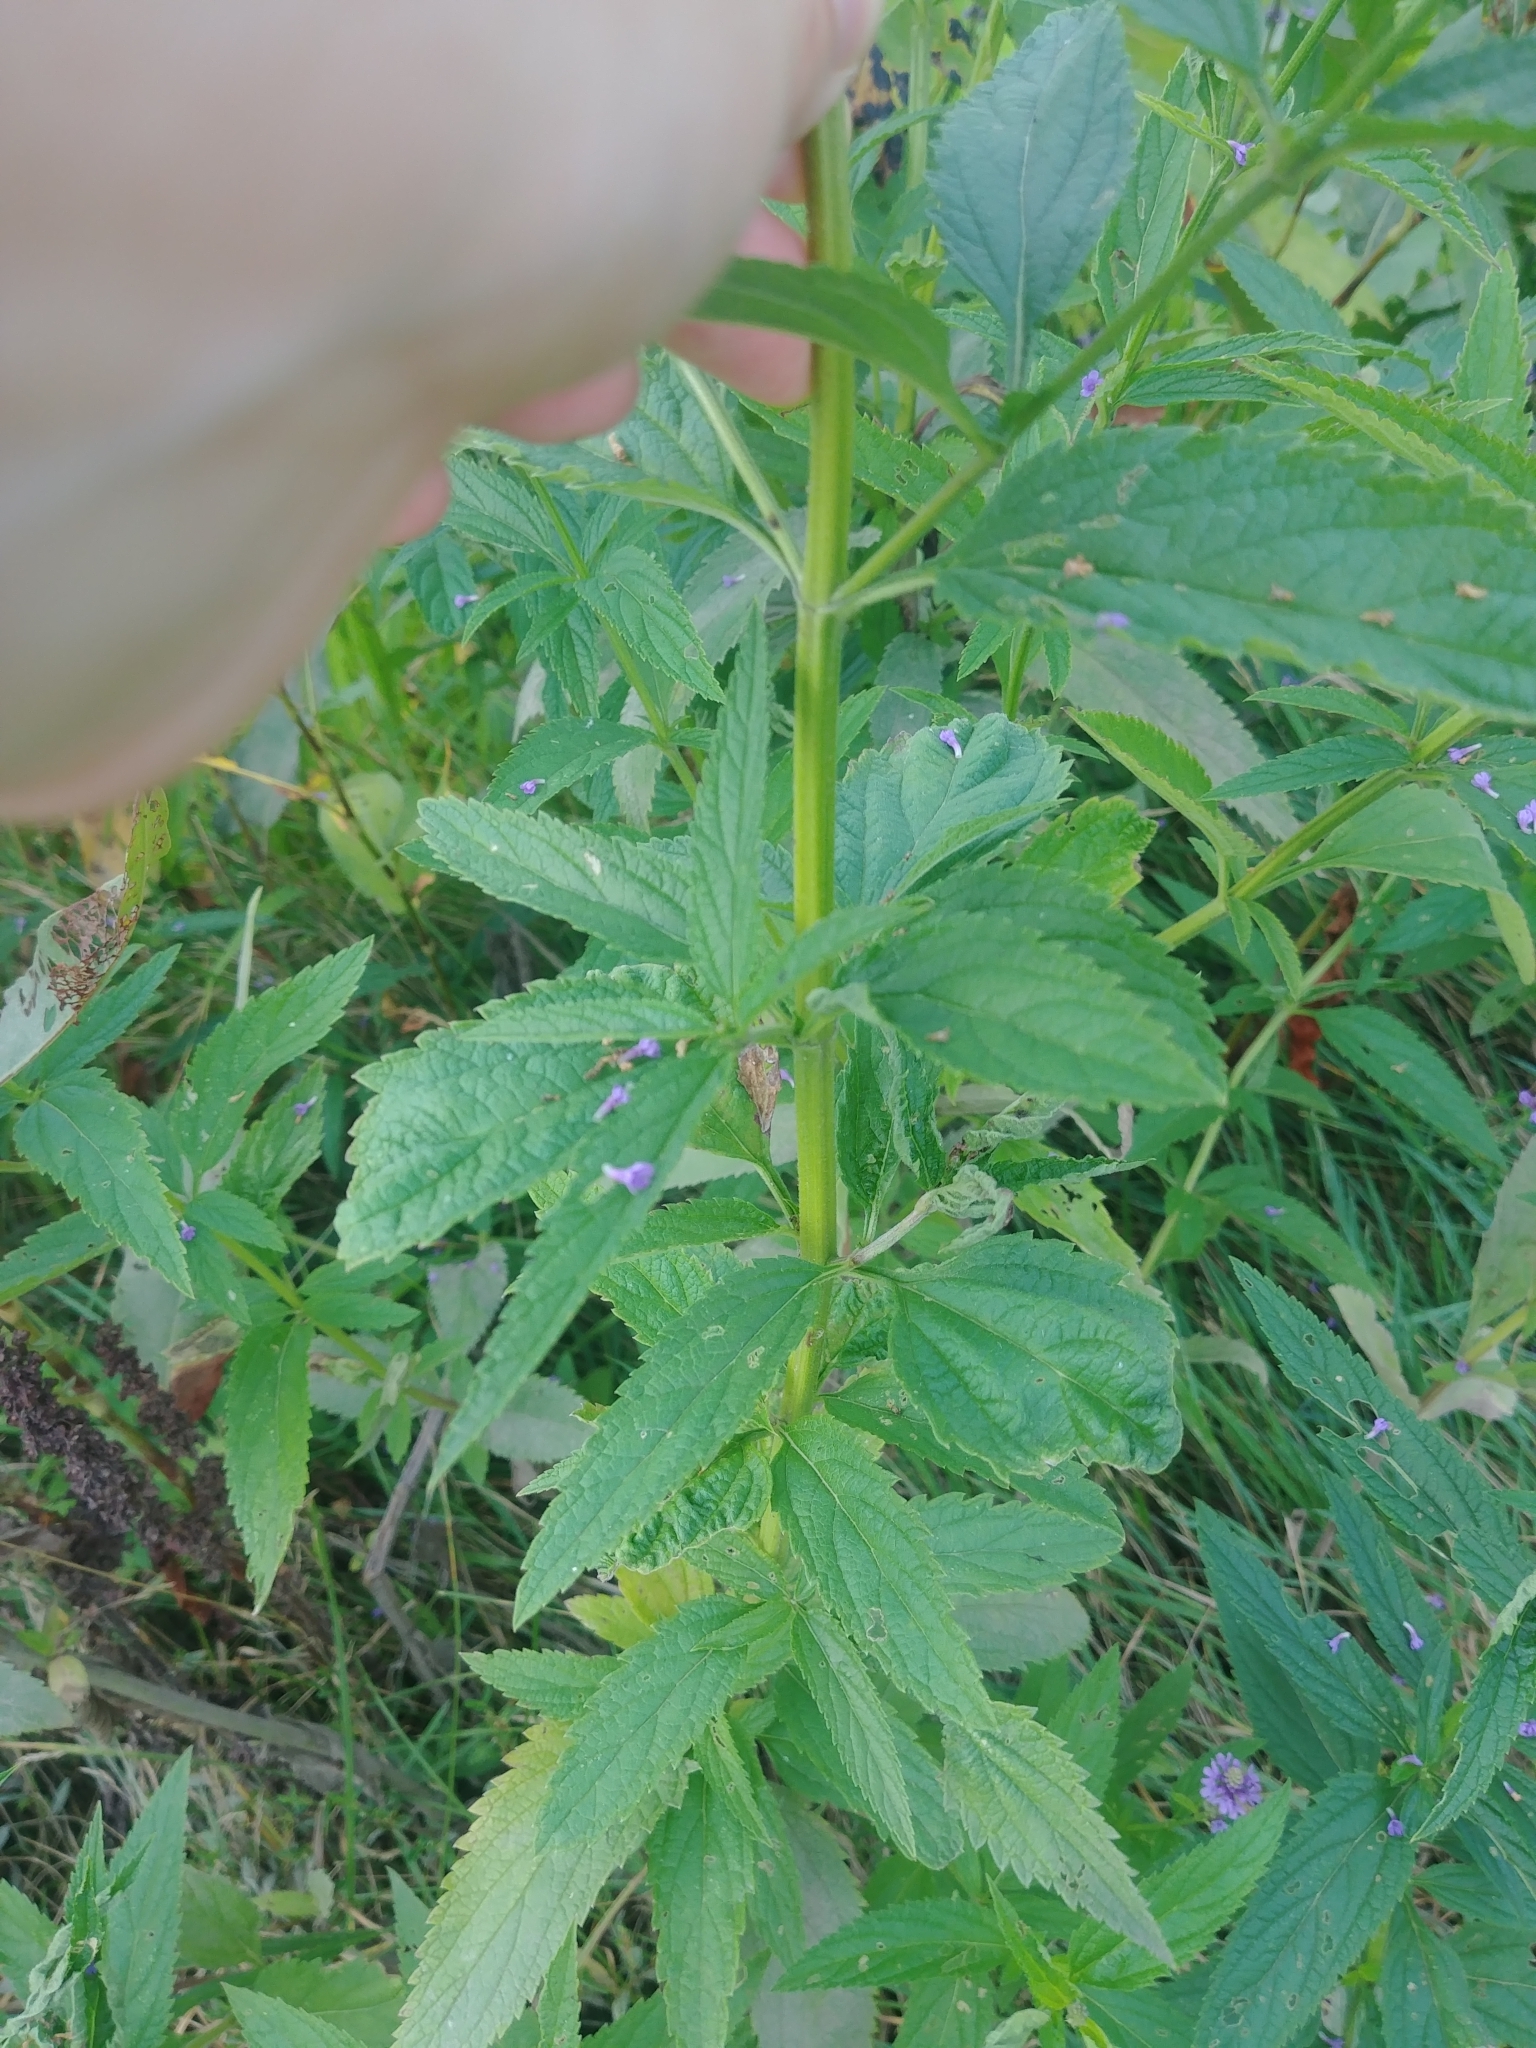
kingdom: Plantae
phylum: Tracheophyta
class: Magnoliopsida
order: Lamiales
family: Verbenaceae
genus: Verbena
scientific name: Verbena hastata
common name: American blue vervain
